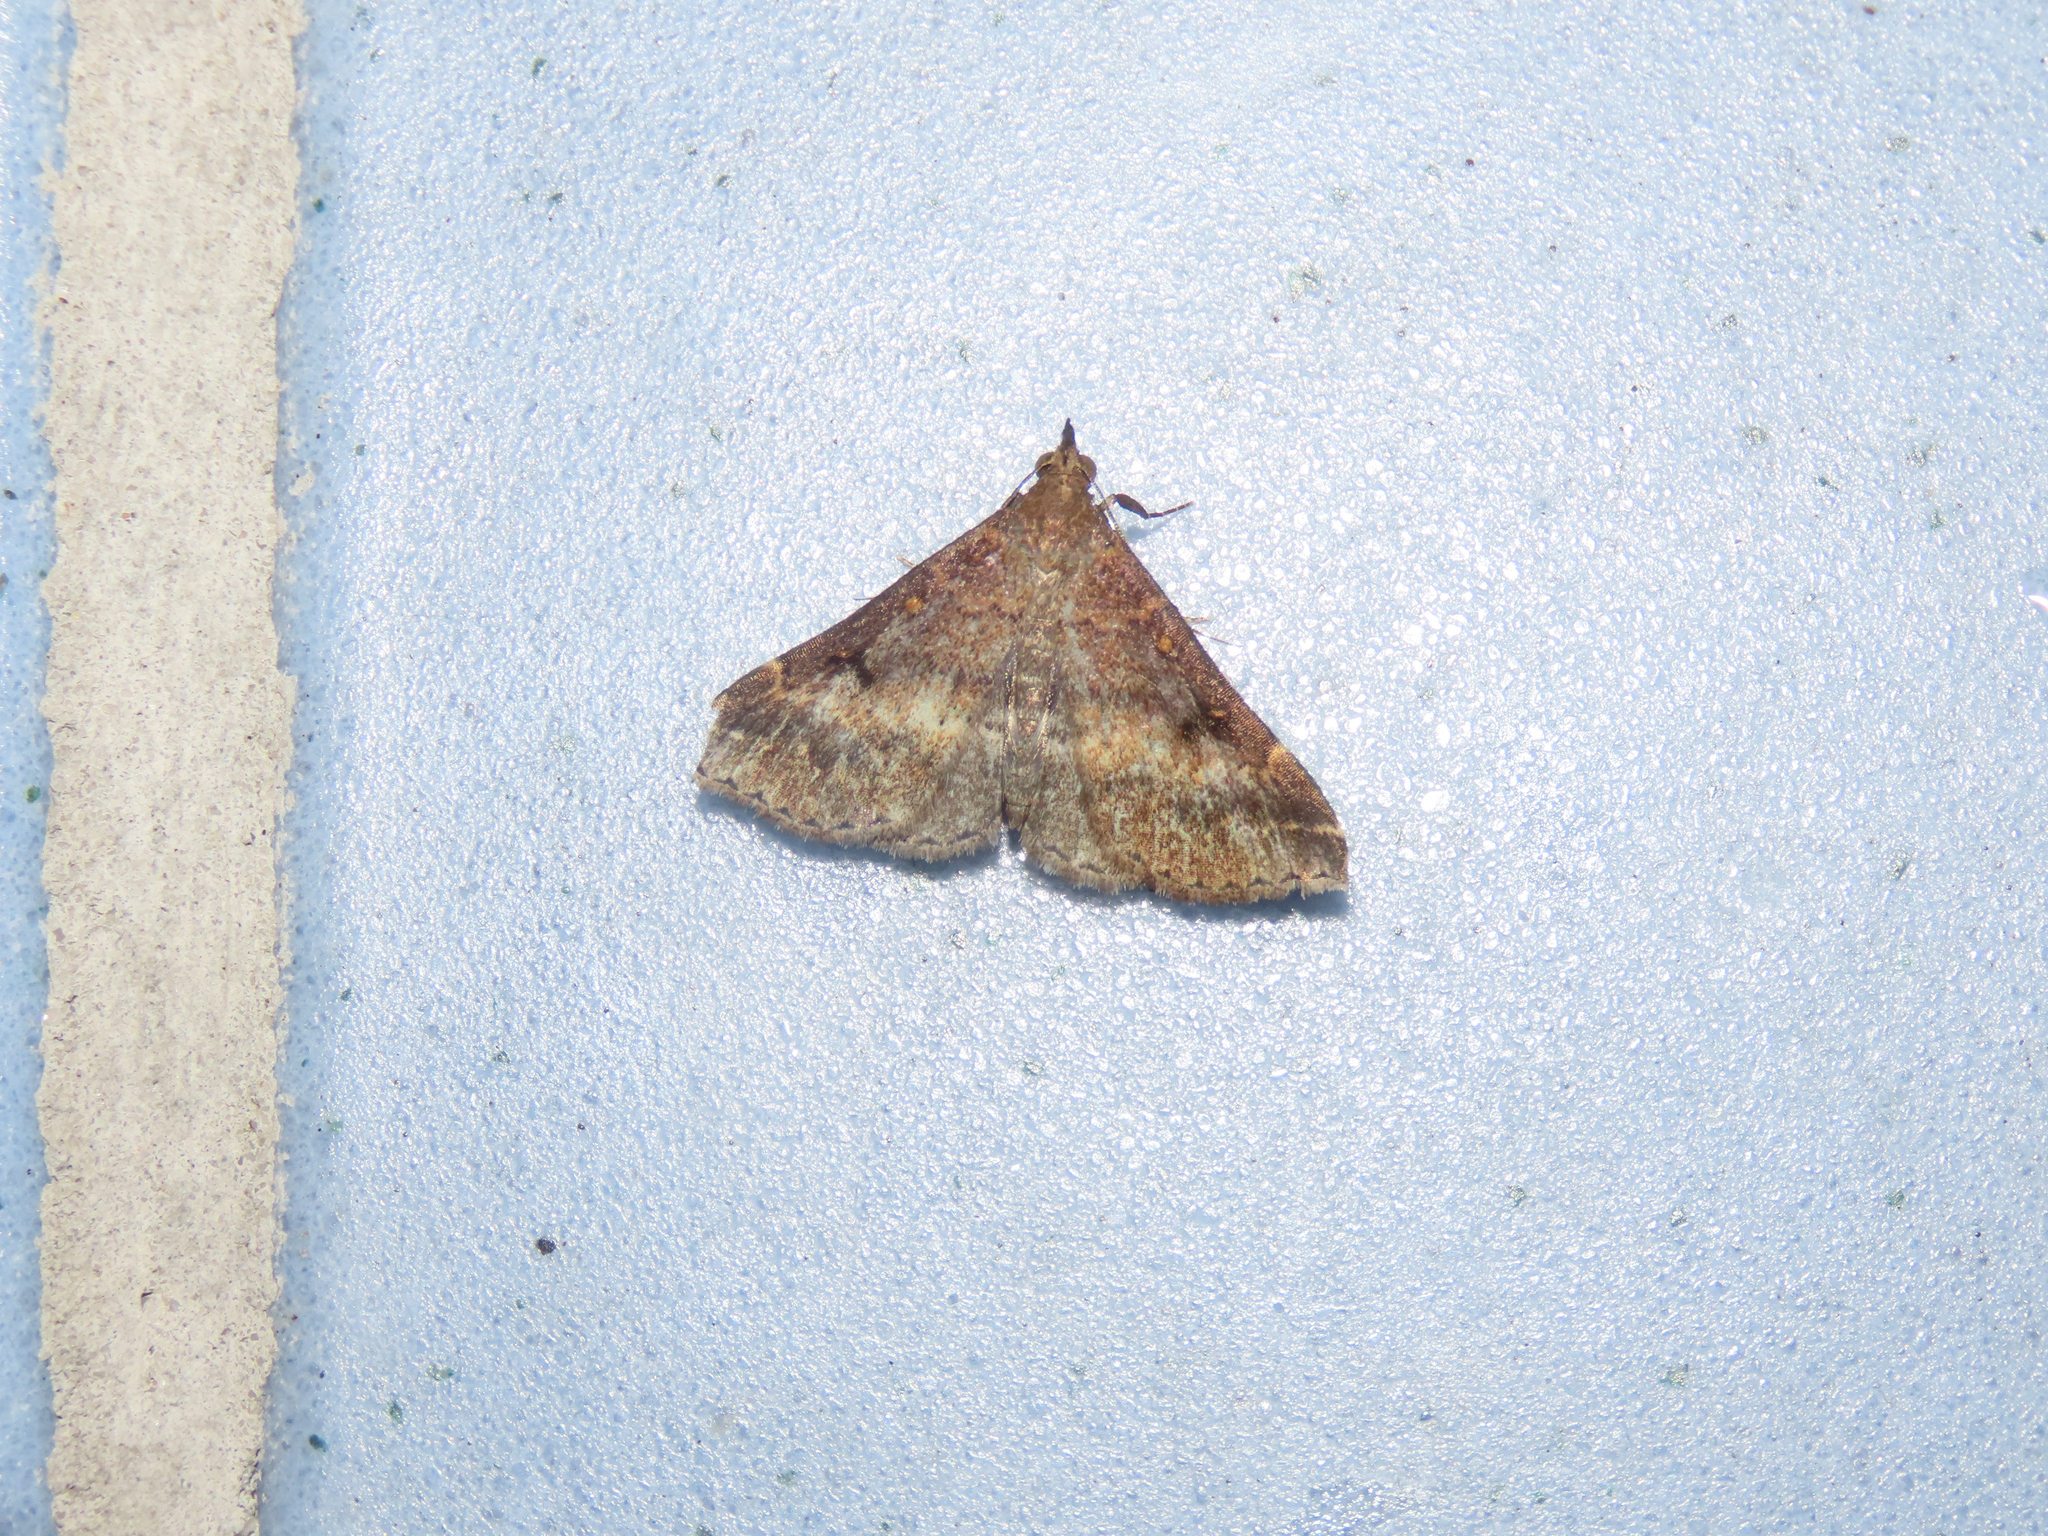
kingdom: Animalia
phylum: Arthropoda
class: Insecta
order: Lepidoptera
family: Erebidae
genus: Renia
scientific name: Renia factiosalis
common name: Sociable renia moth
